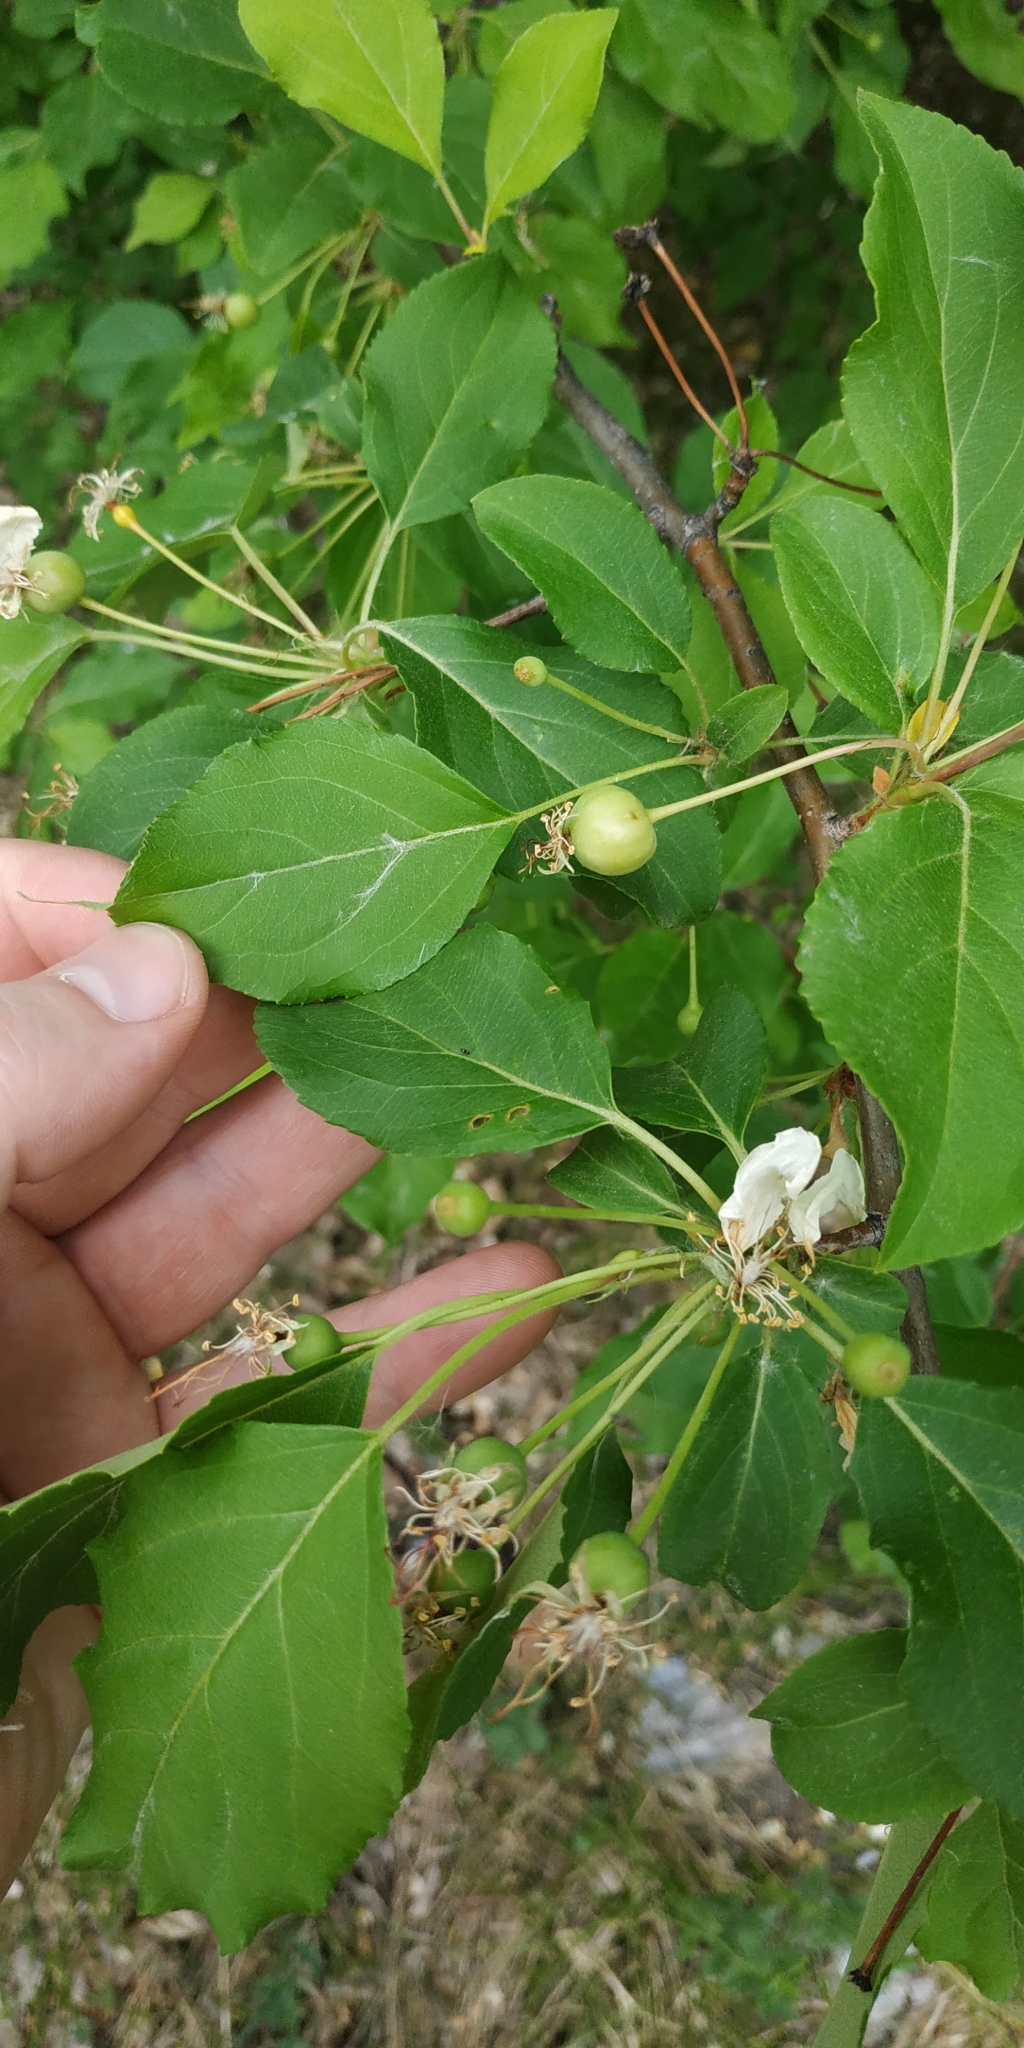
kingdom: Plantae
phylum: Tracheophyta
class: Magnoliopsida
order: Rosales
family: Rosaceae
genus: Malus
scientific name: Malus baccata
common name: Siberian crab
